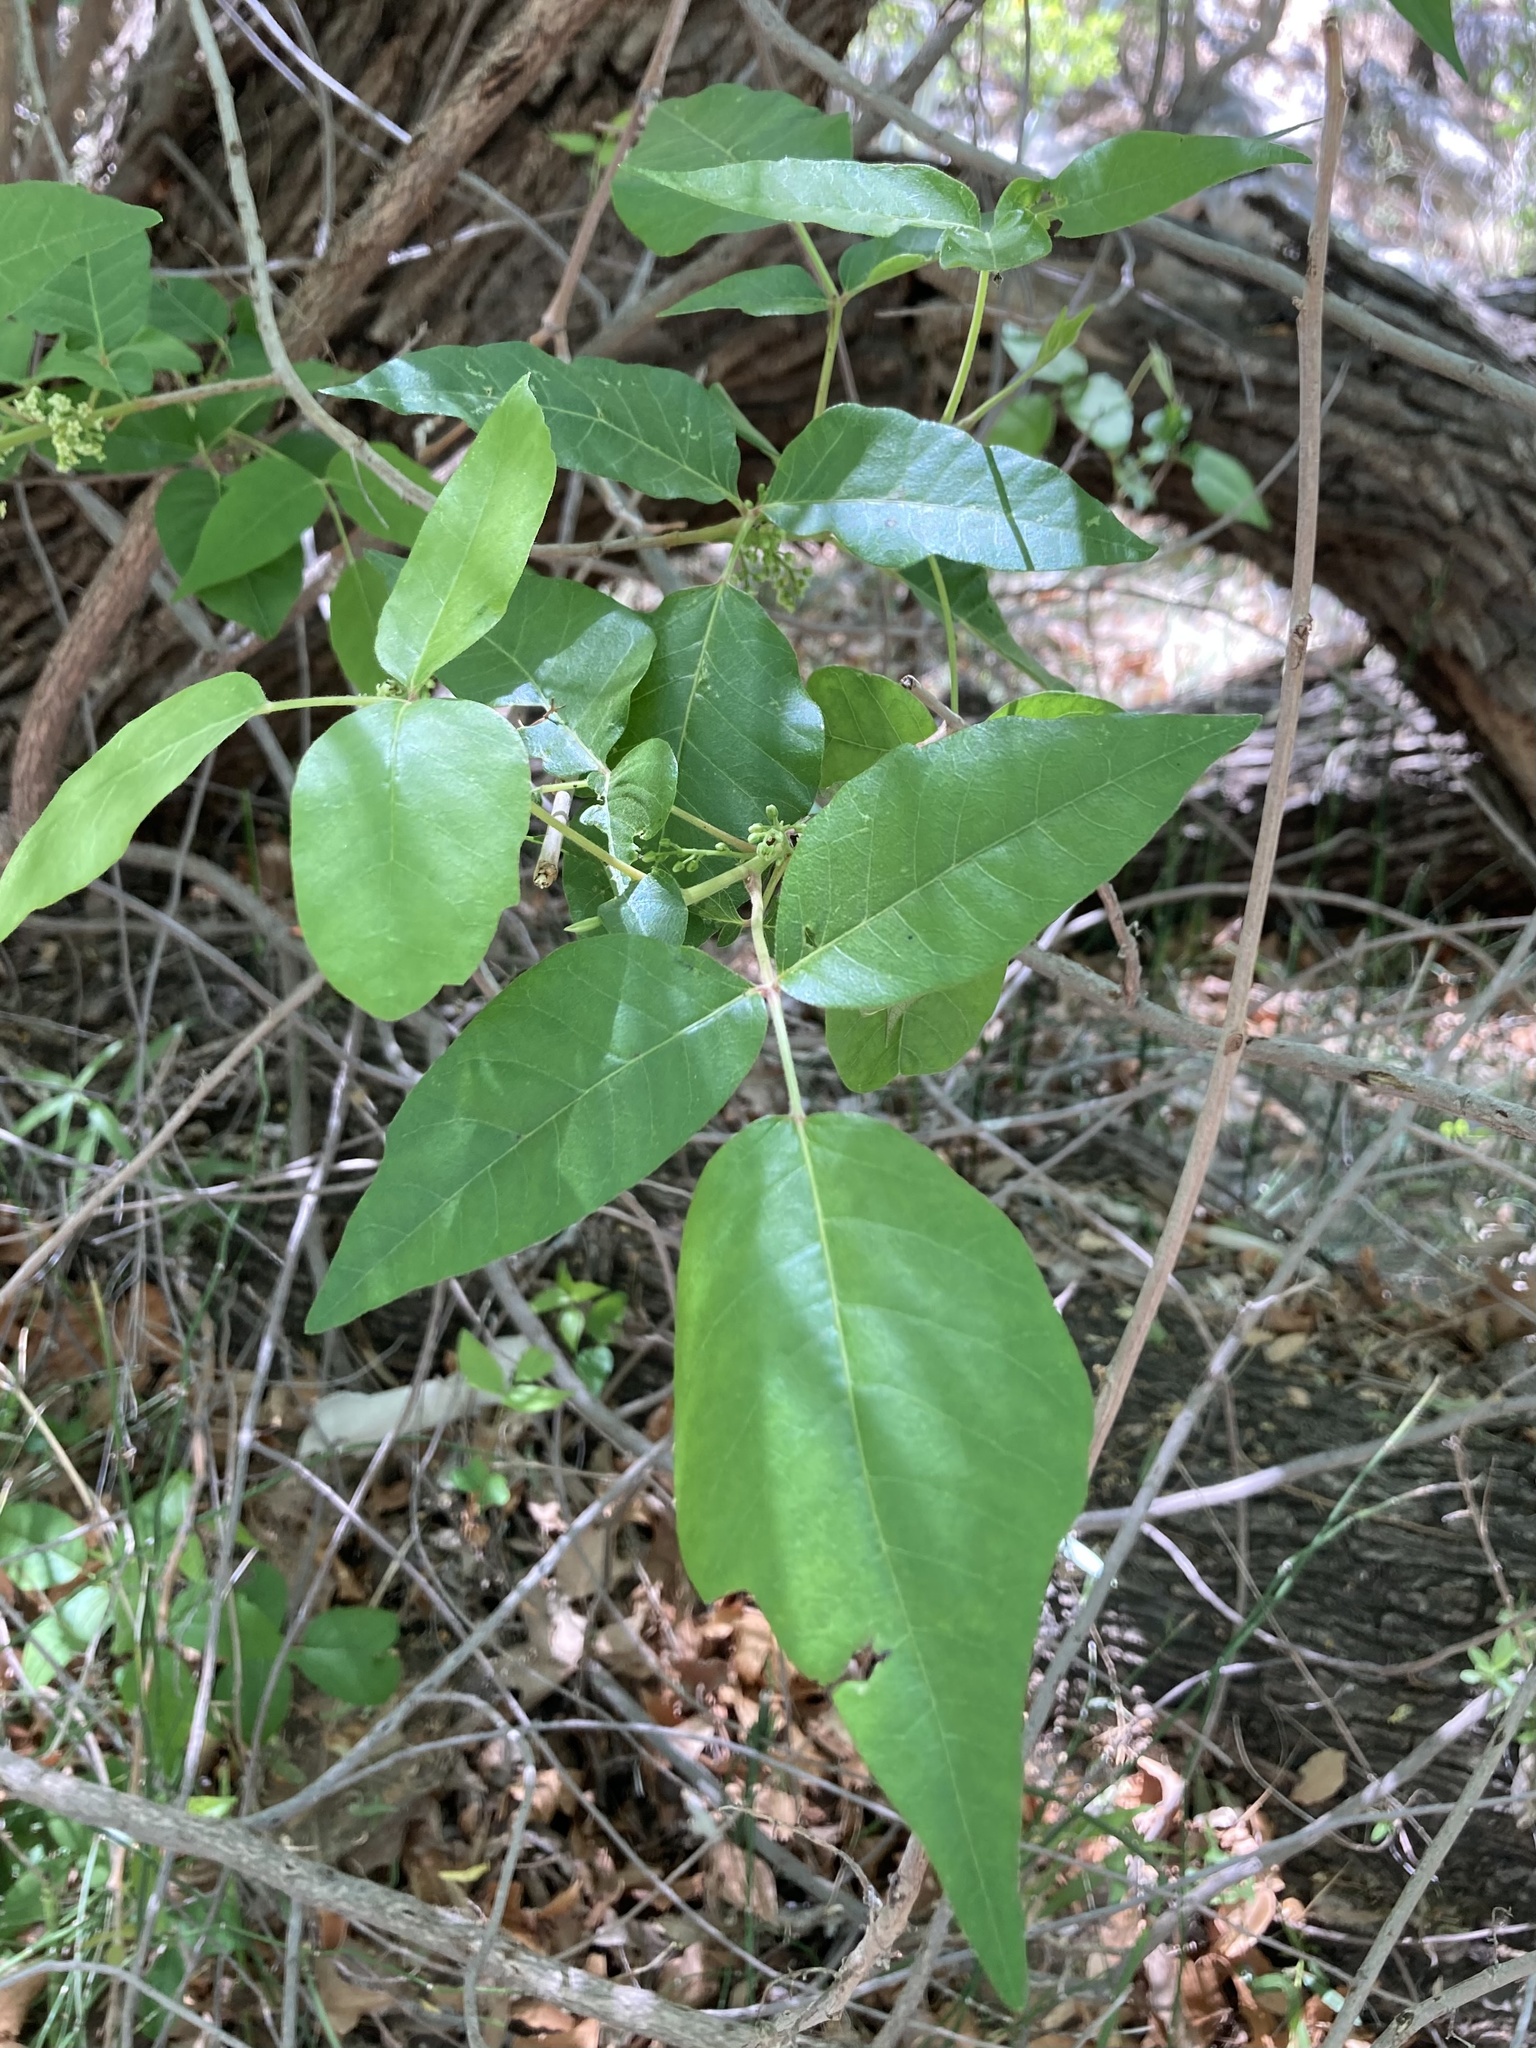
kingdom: Plantae
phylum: Tracheophyta
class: Magnoliopsida
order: Sapindales
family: Anacardiaceae
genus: Toxicodendron
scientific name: Toxicodendron radicans
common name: Poison ivy
